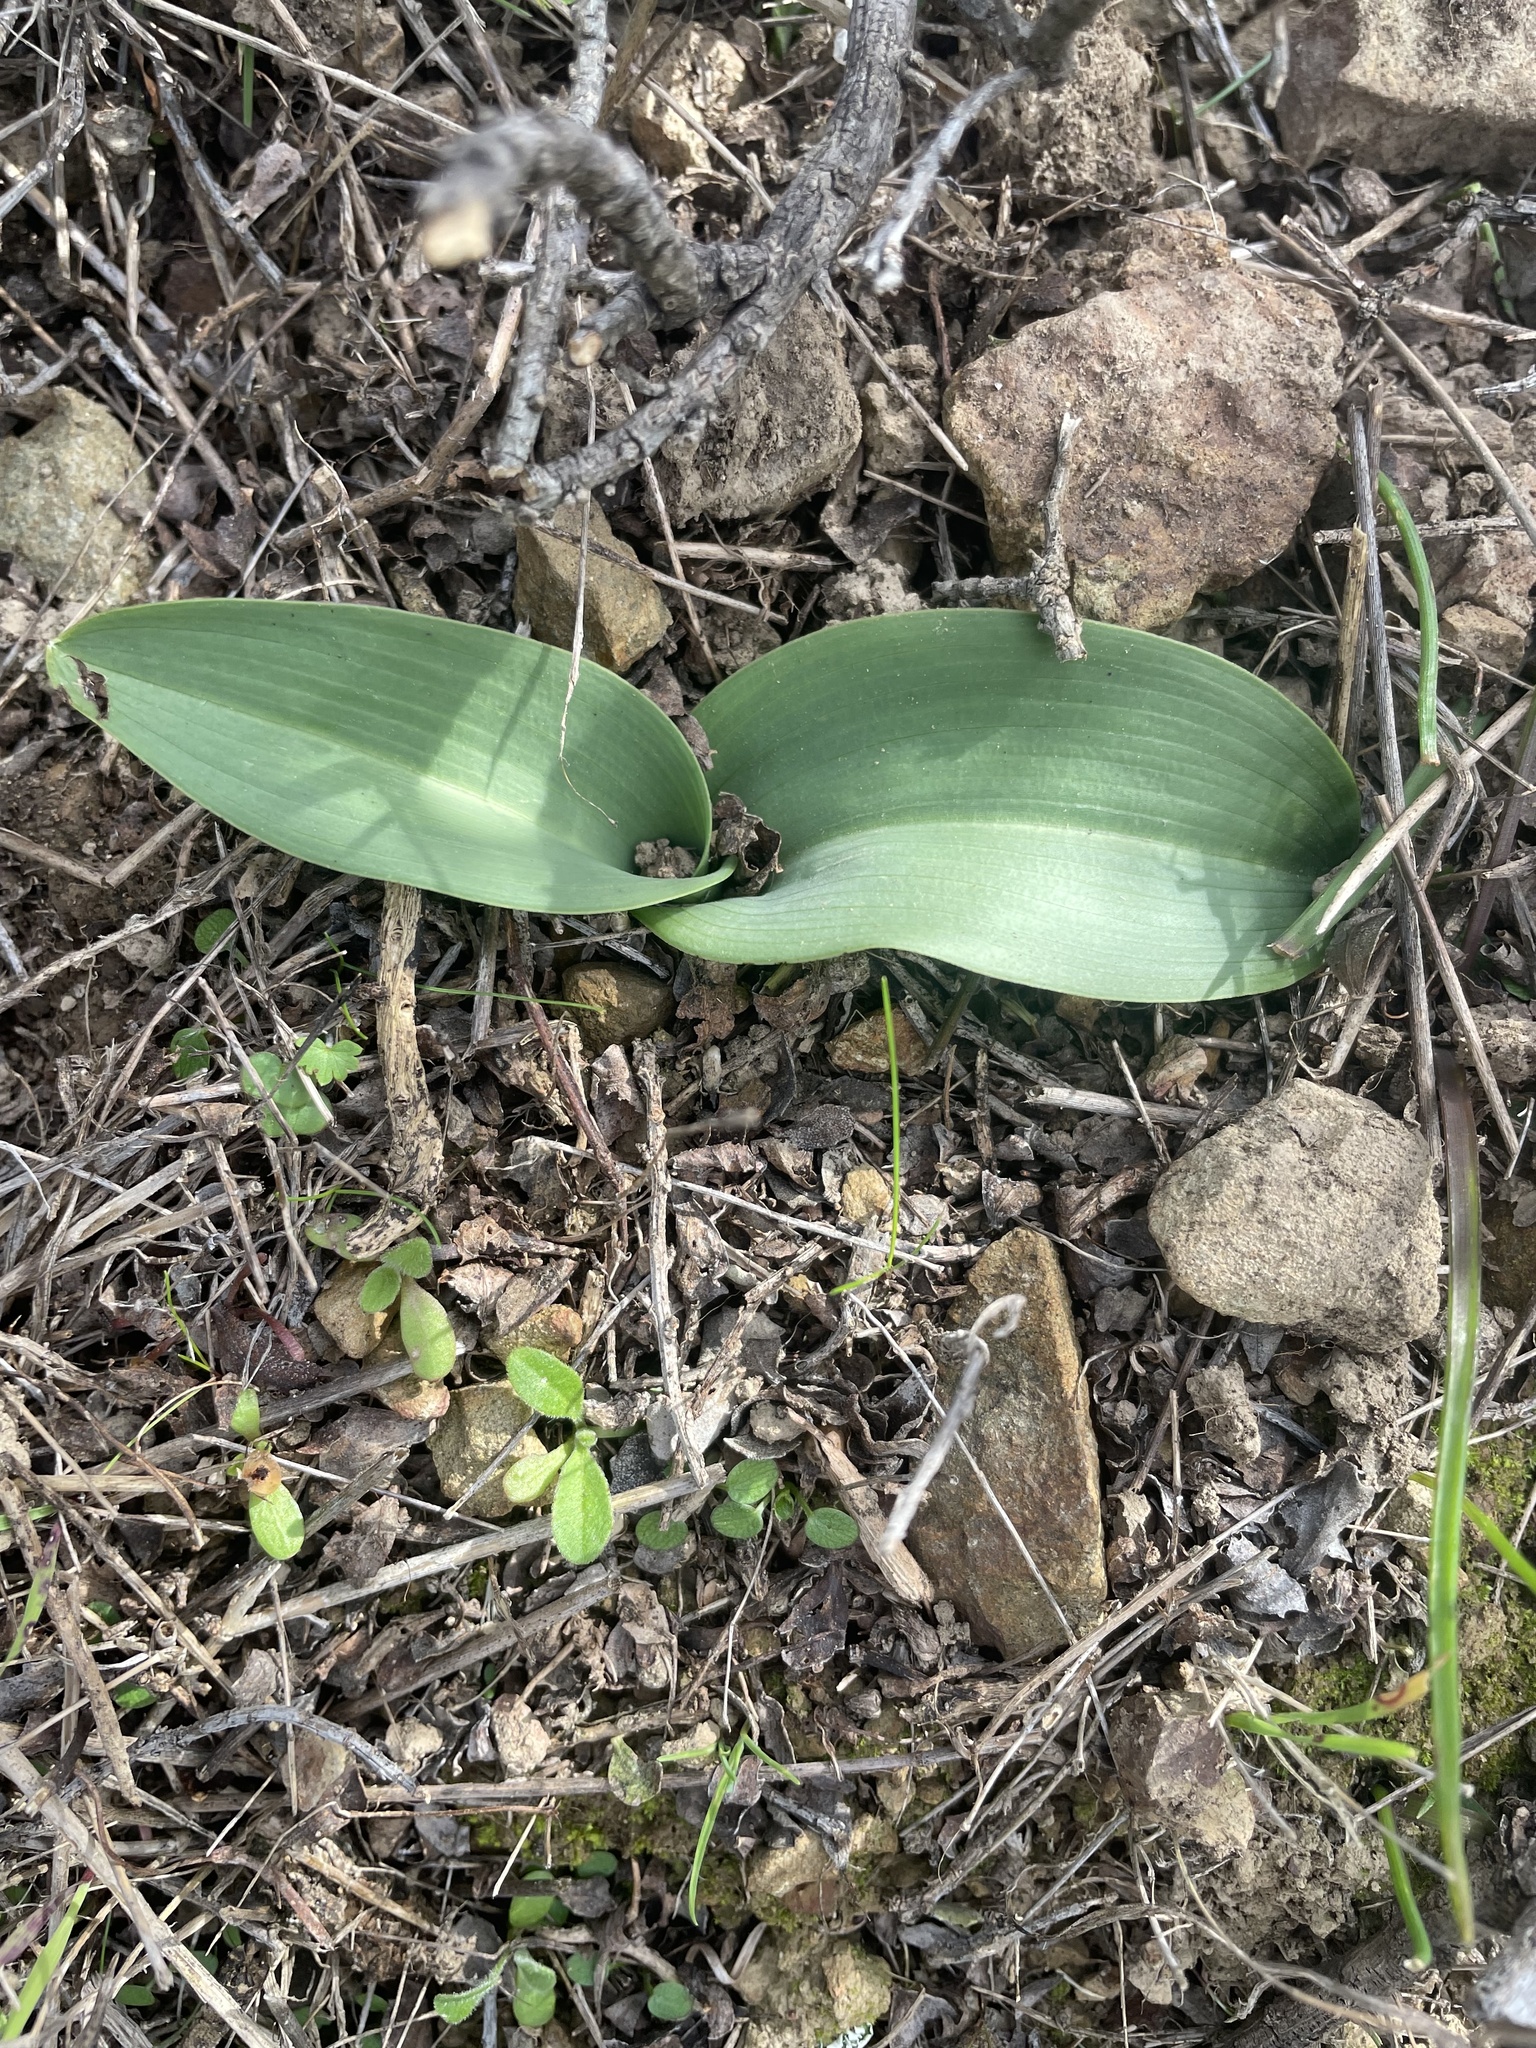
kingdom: Plantae
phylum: Tracheophyta
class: Liliopsida
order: Asparagales
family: Orchidaceae
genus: Platanthera
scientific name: Platanthera elegans
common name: Coast piperia
